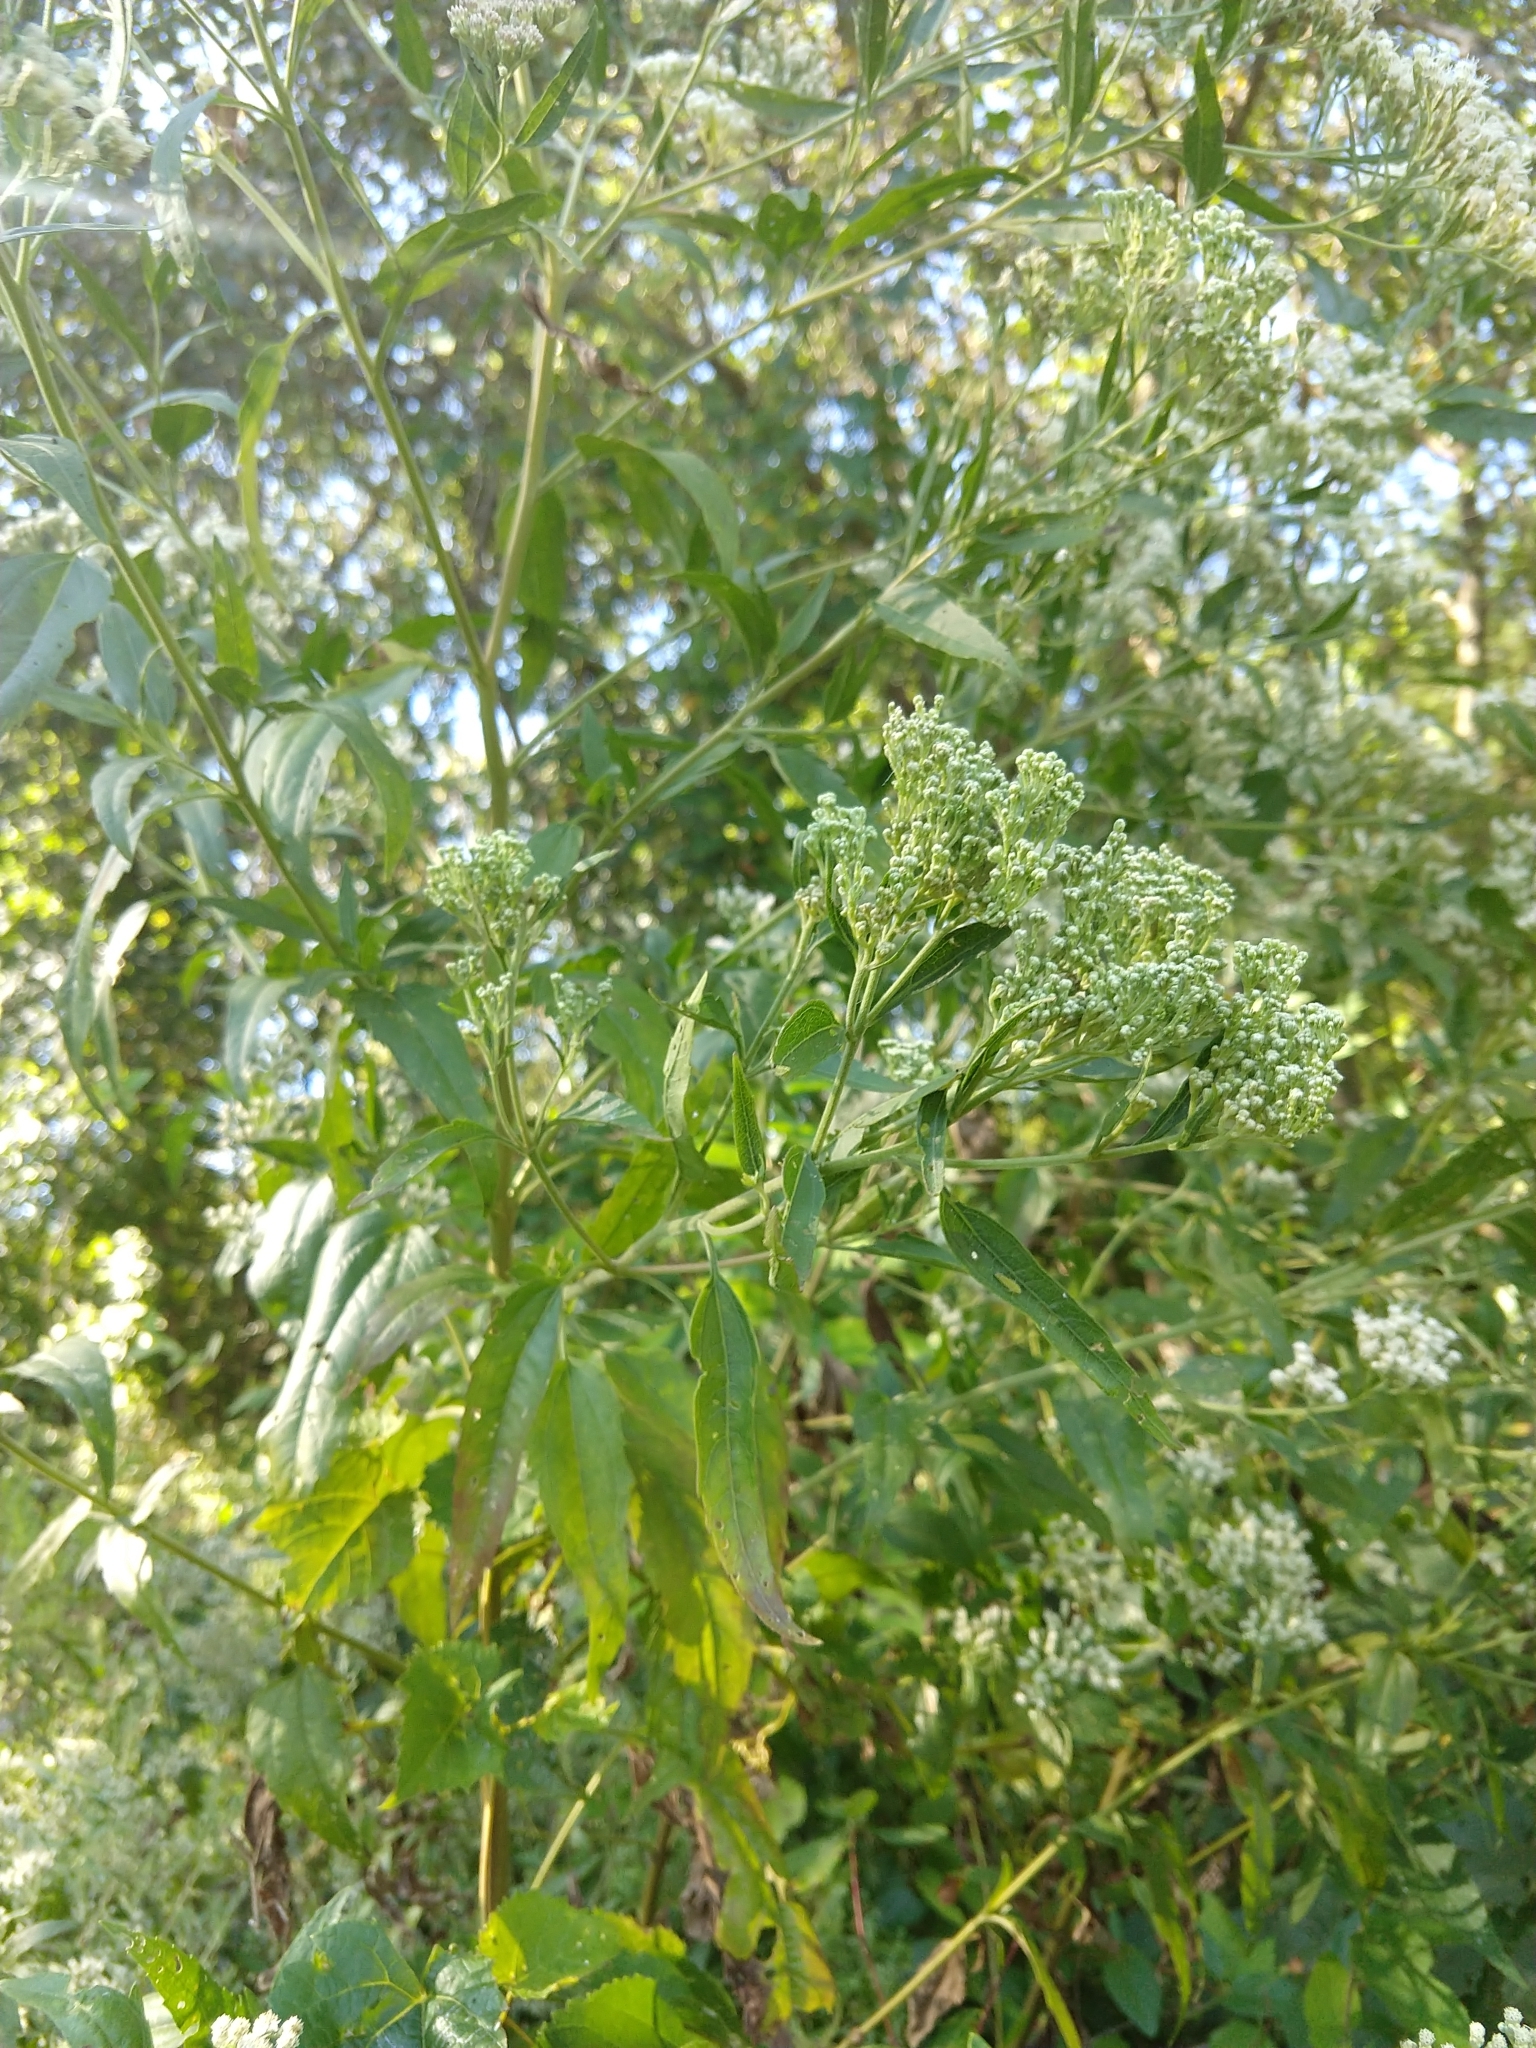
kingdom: Plantae
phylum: Tracheophyta
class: Magnoliopsida
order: Asterales
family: Asteraceae
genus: Eupatorium
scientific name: Eupatorium serotinum
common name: Late boneset
